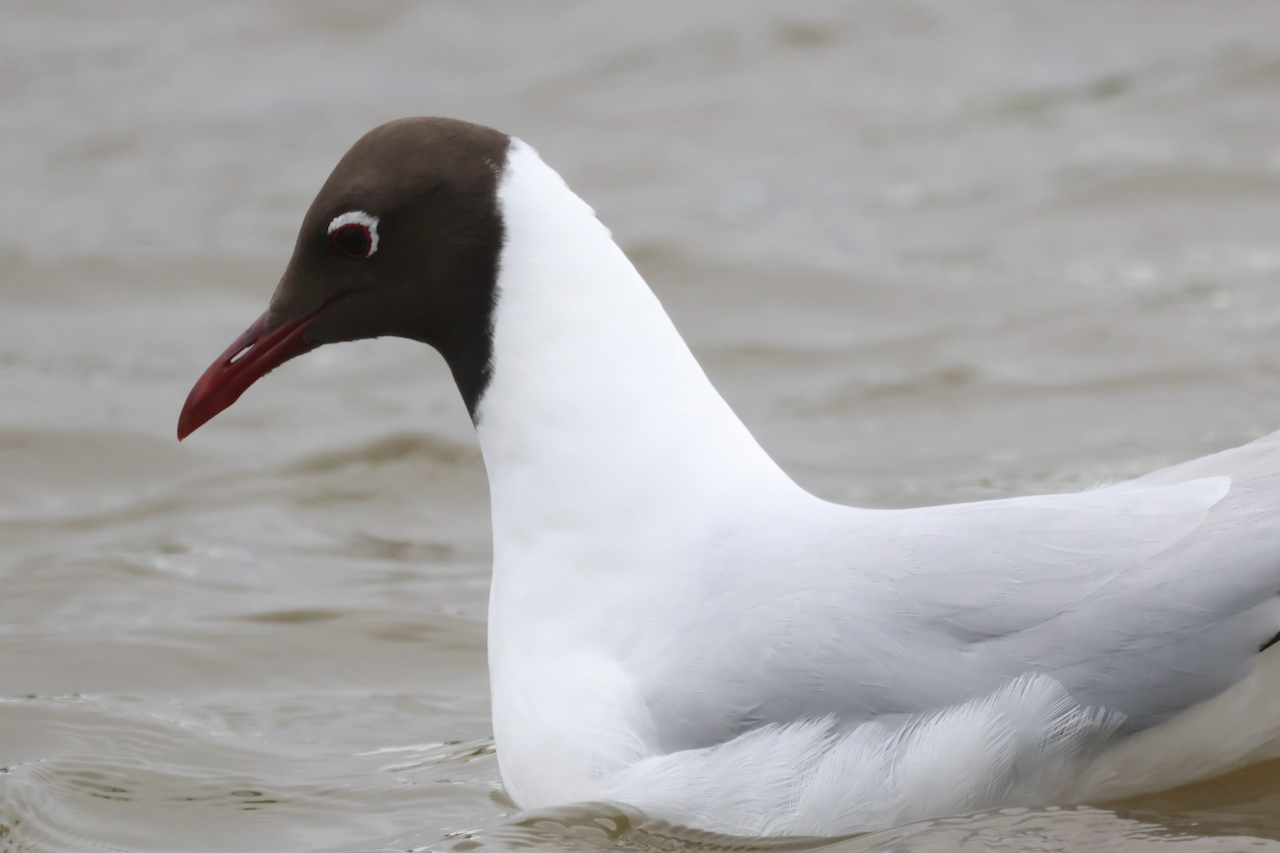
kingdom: Animalia
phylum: Chordata
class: Aves
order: Charadriiformes
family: Laridae
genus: Chroicocephalus
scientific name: Chroicocephalus ridibundus
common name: Black-headed gull
